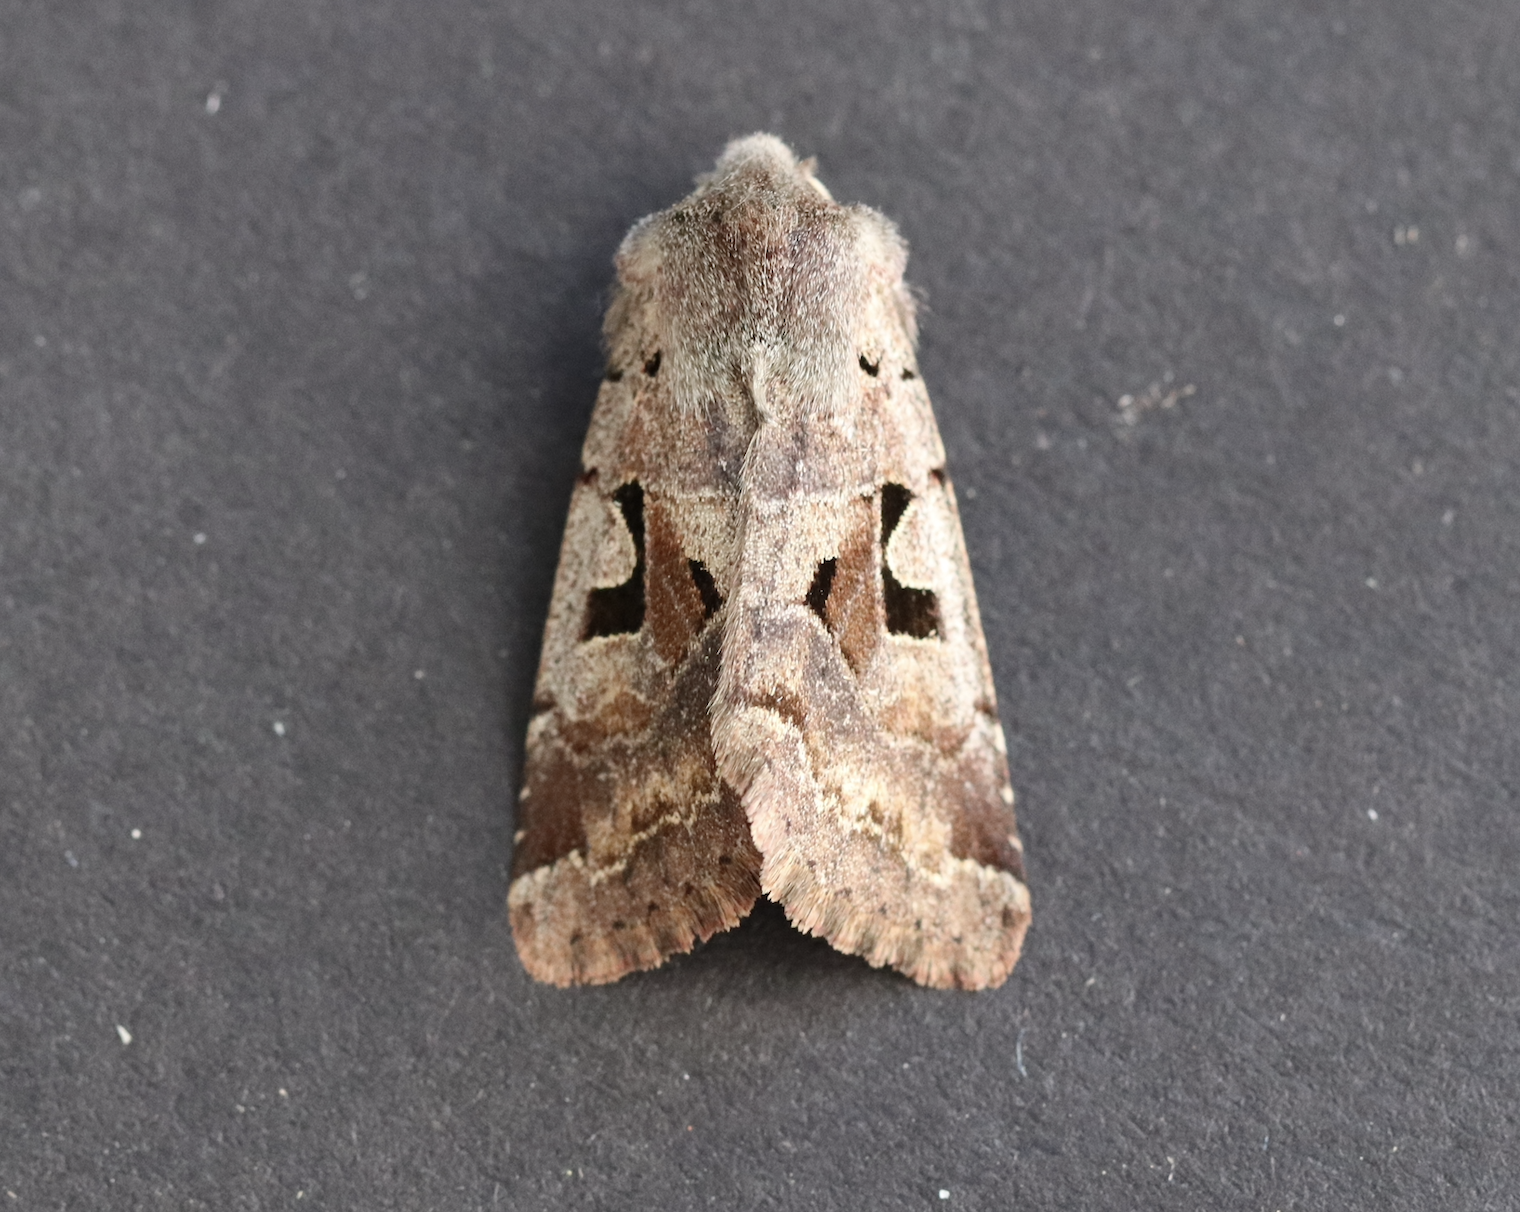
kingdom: Animalia
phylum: Arthropoda
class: Insecta
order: Lepidoptera
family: Noctuidae
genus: Orthosia
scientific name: Orthosia gothica
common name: Hebrew character
